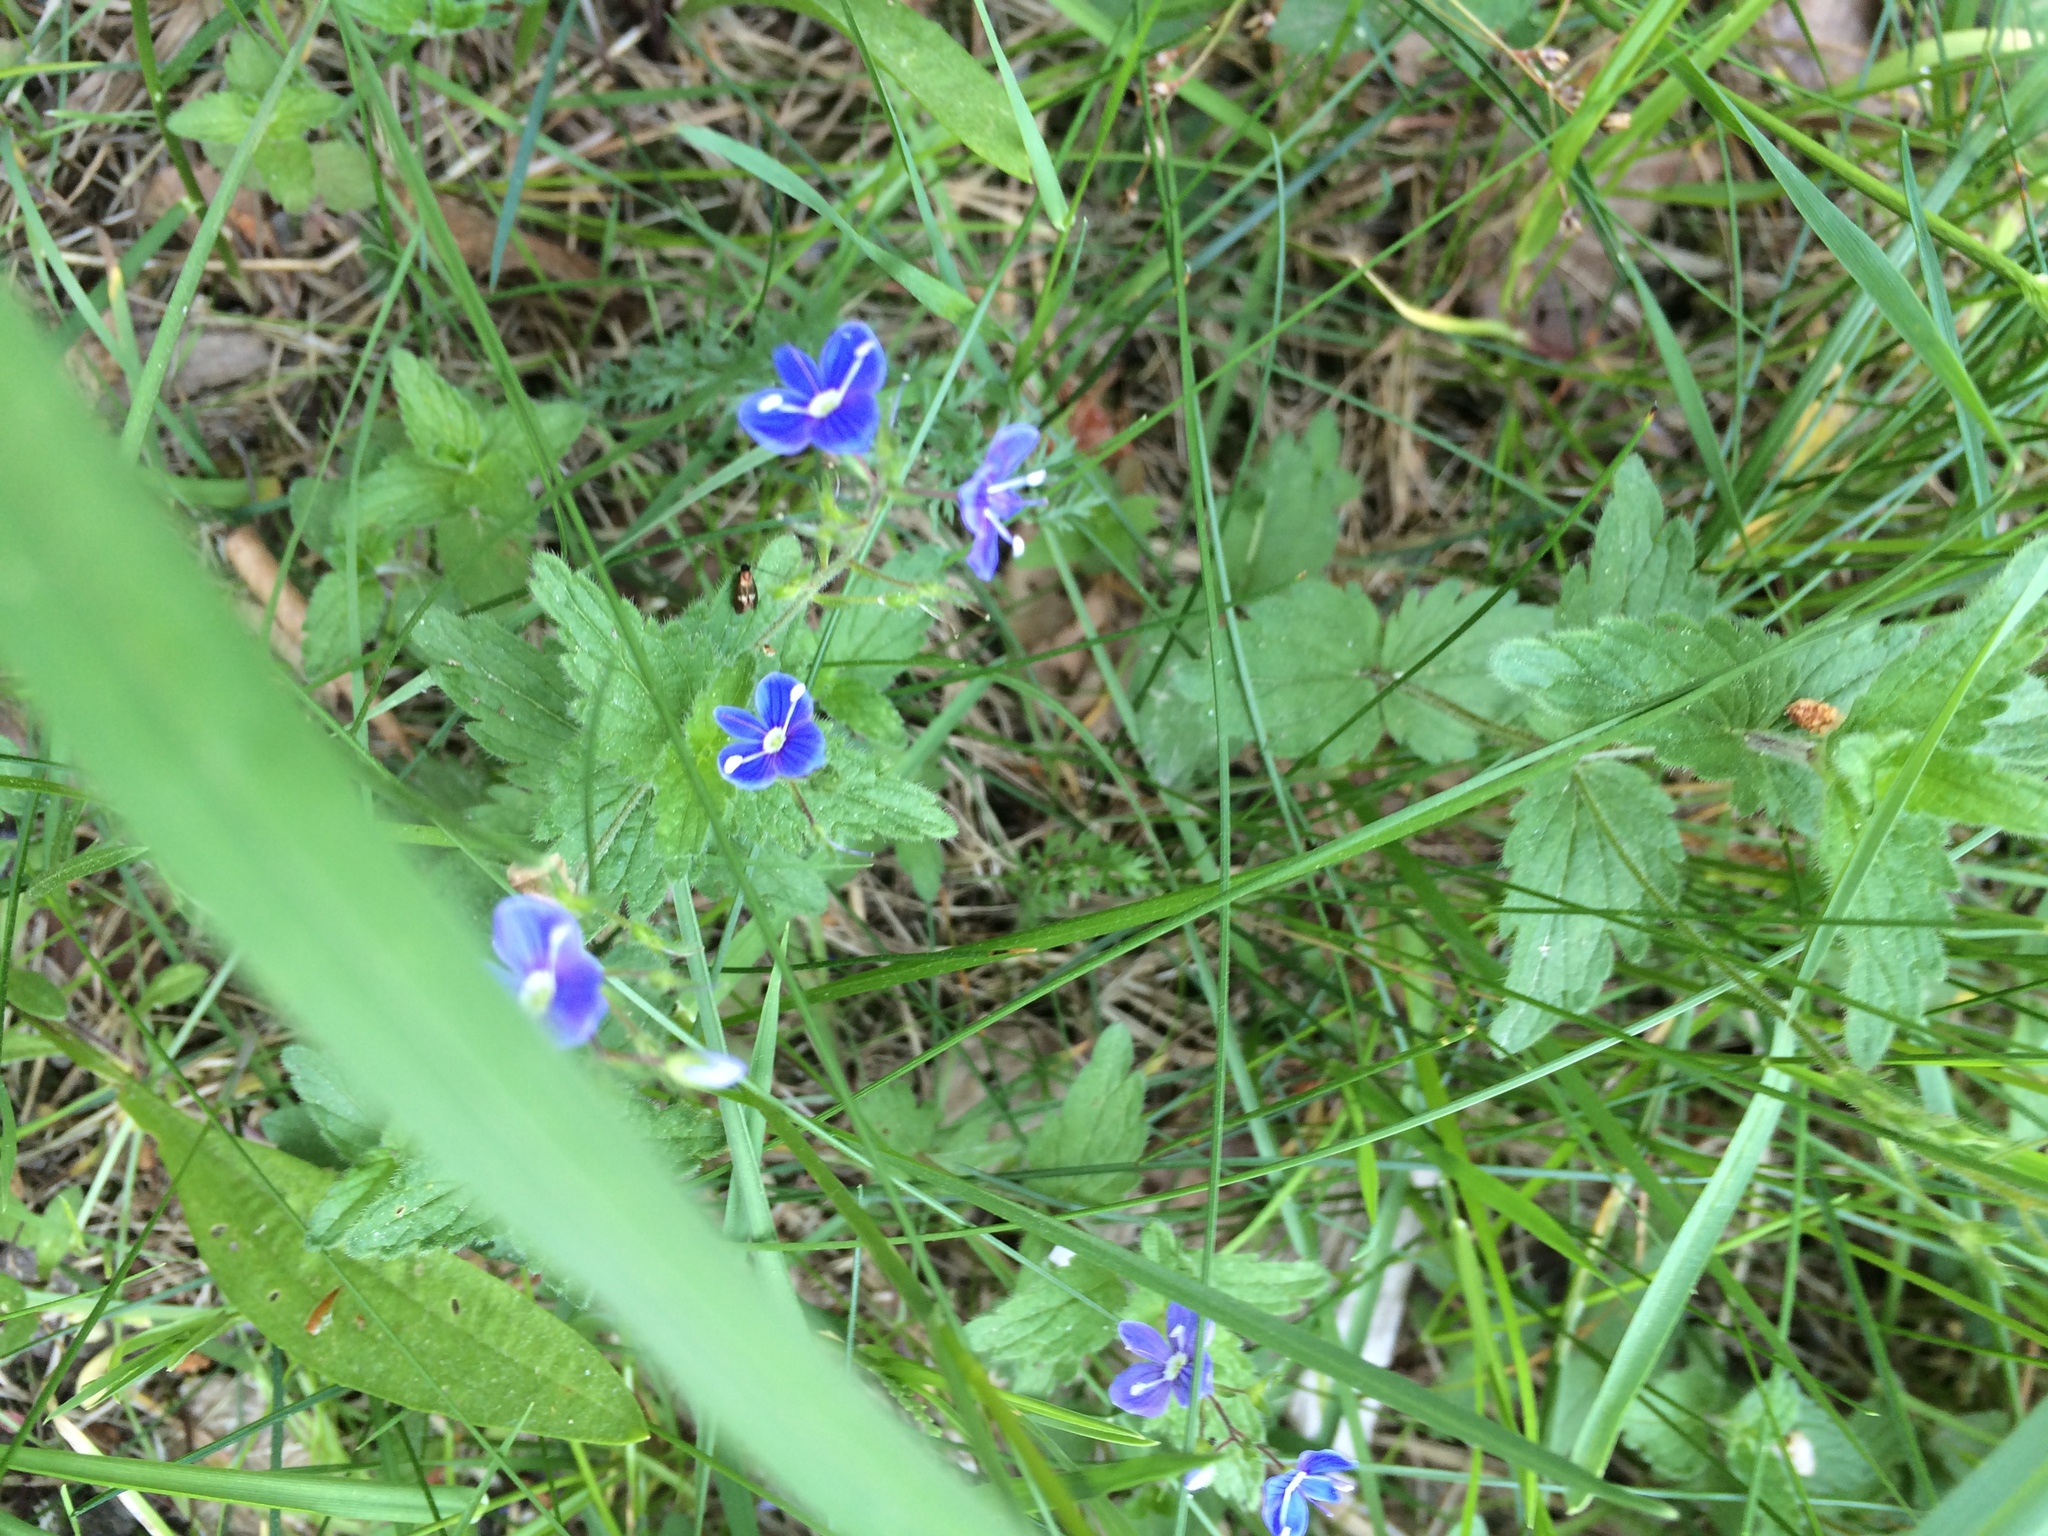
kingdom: Plantae
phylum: Tracheophyta
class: Magnoliopsida
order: Lamiales
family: Plantaginaceae
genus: Veronica
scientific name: Veronica chamaedrys
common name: Germander speedwell
